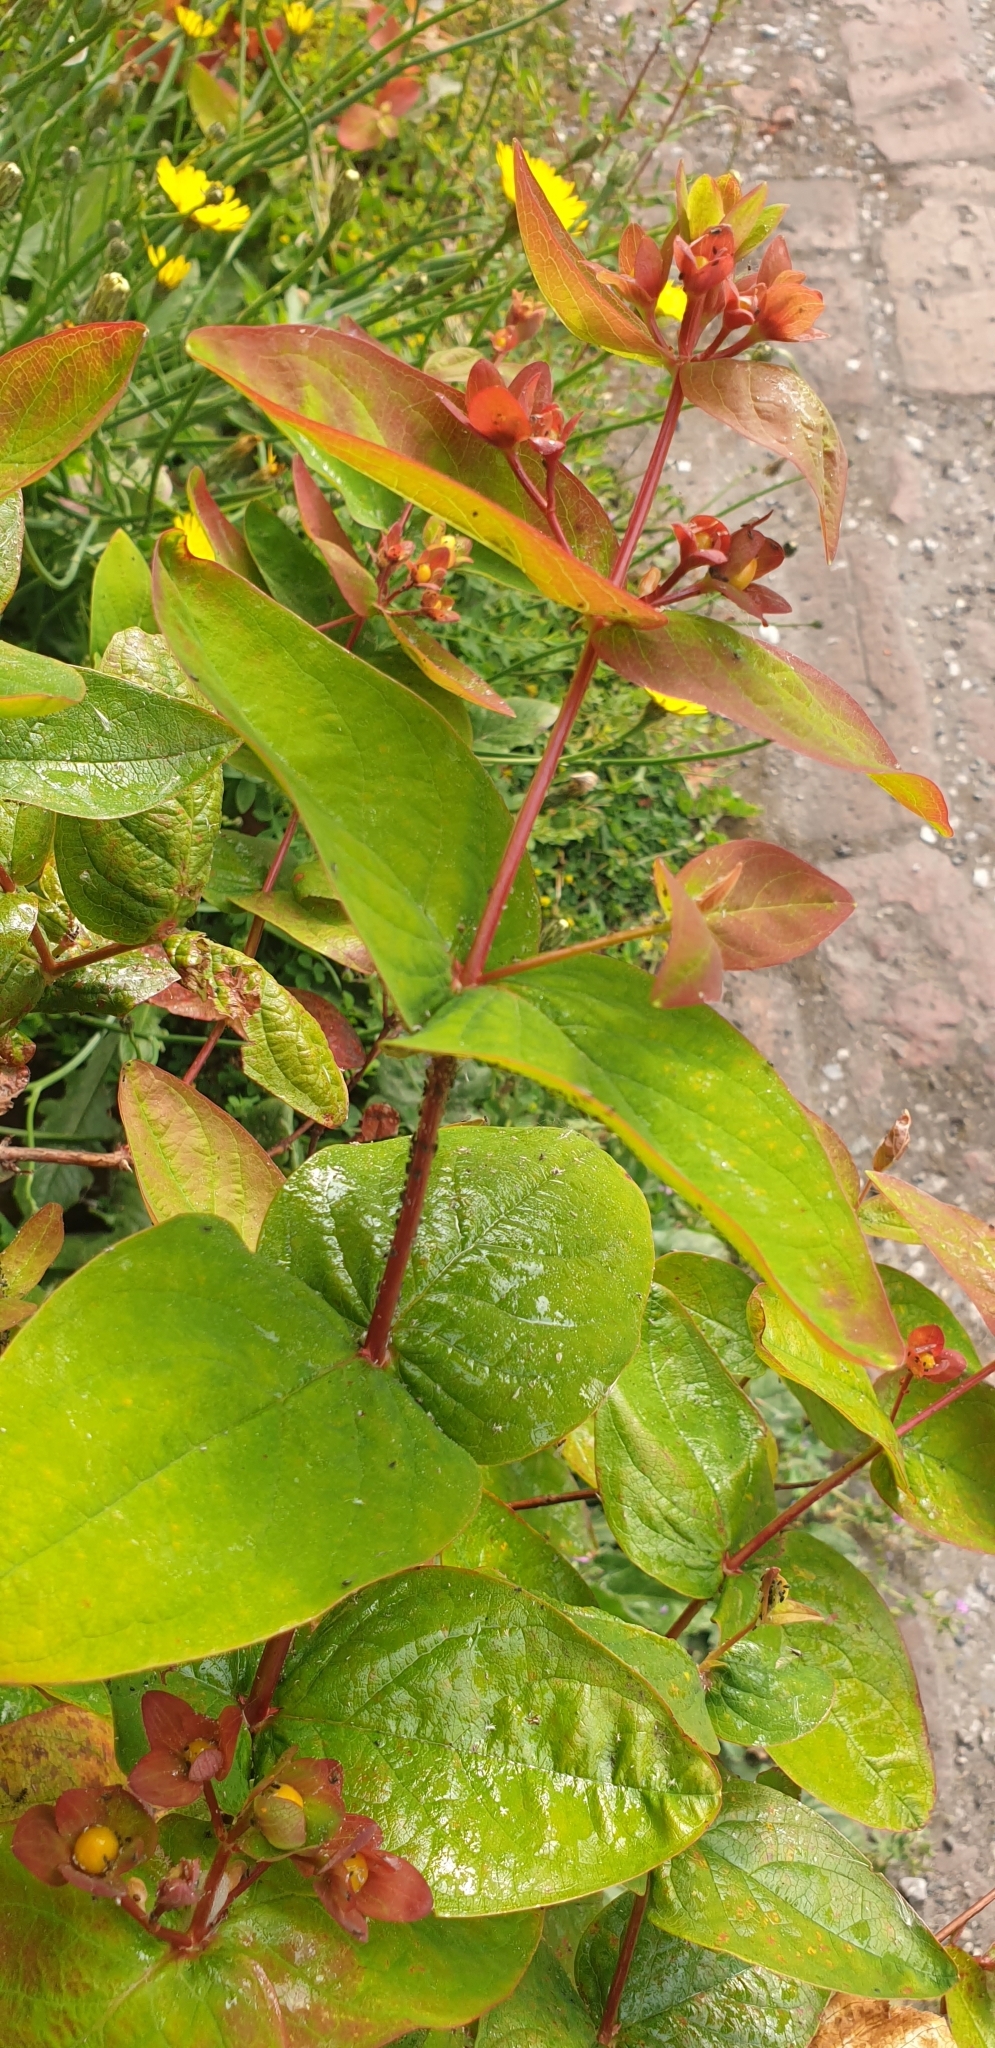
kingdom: Plantae
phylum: Tracheophyta
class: Magnoliopsida
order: Malpighiales
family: Hypericaceae
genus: Hypericum
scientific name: Hypericum androsaemum
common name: Sweet-amber
